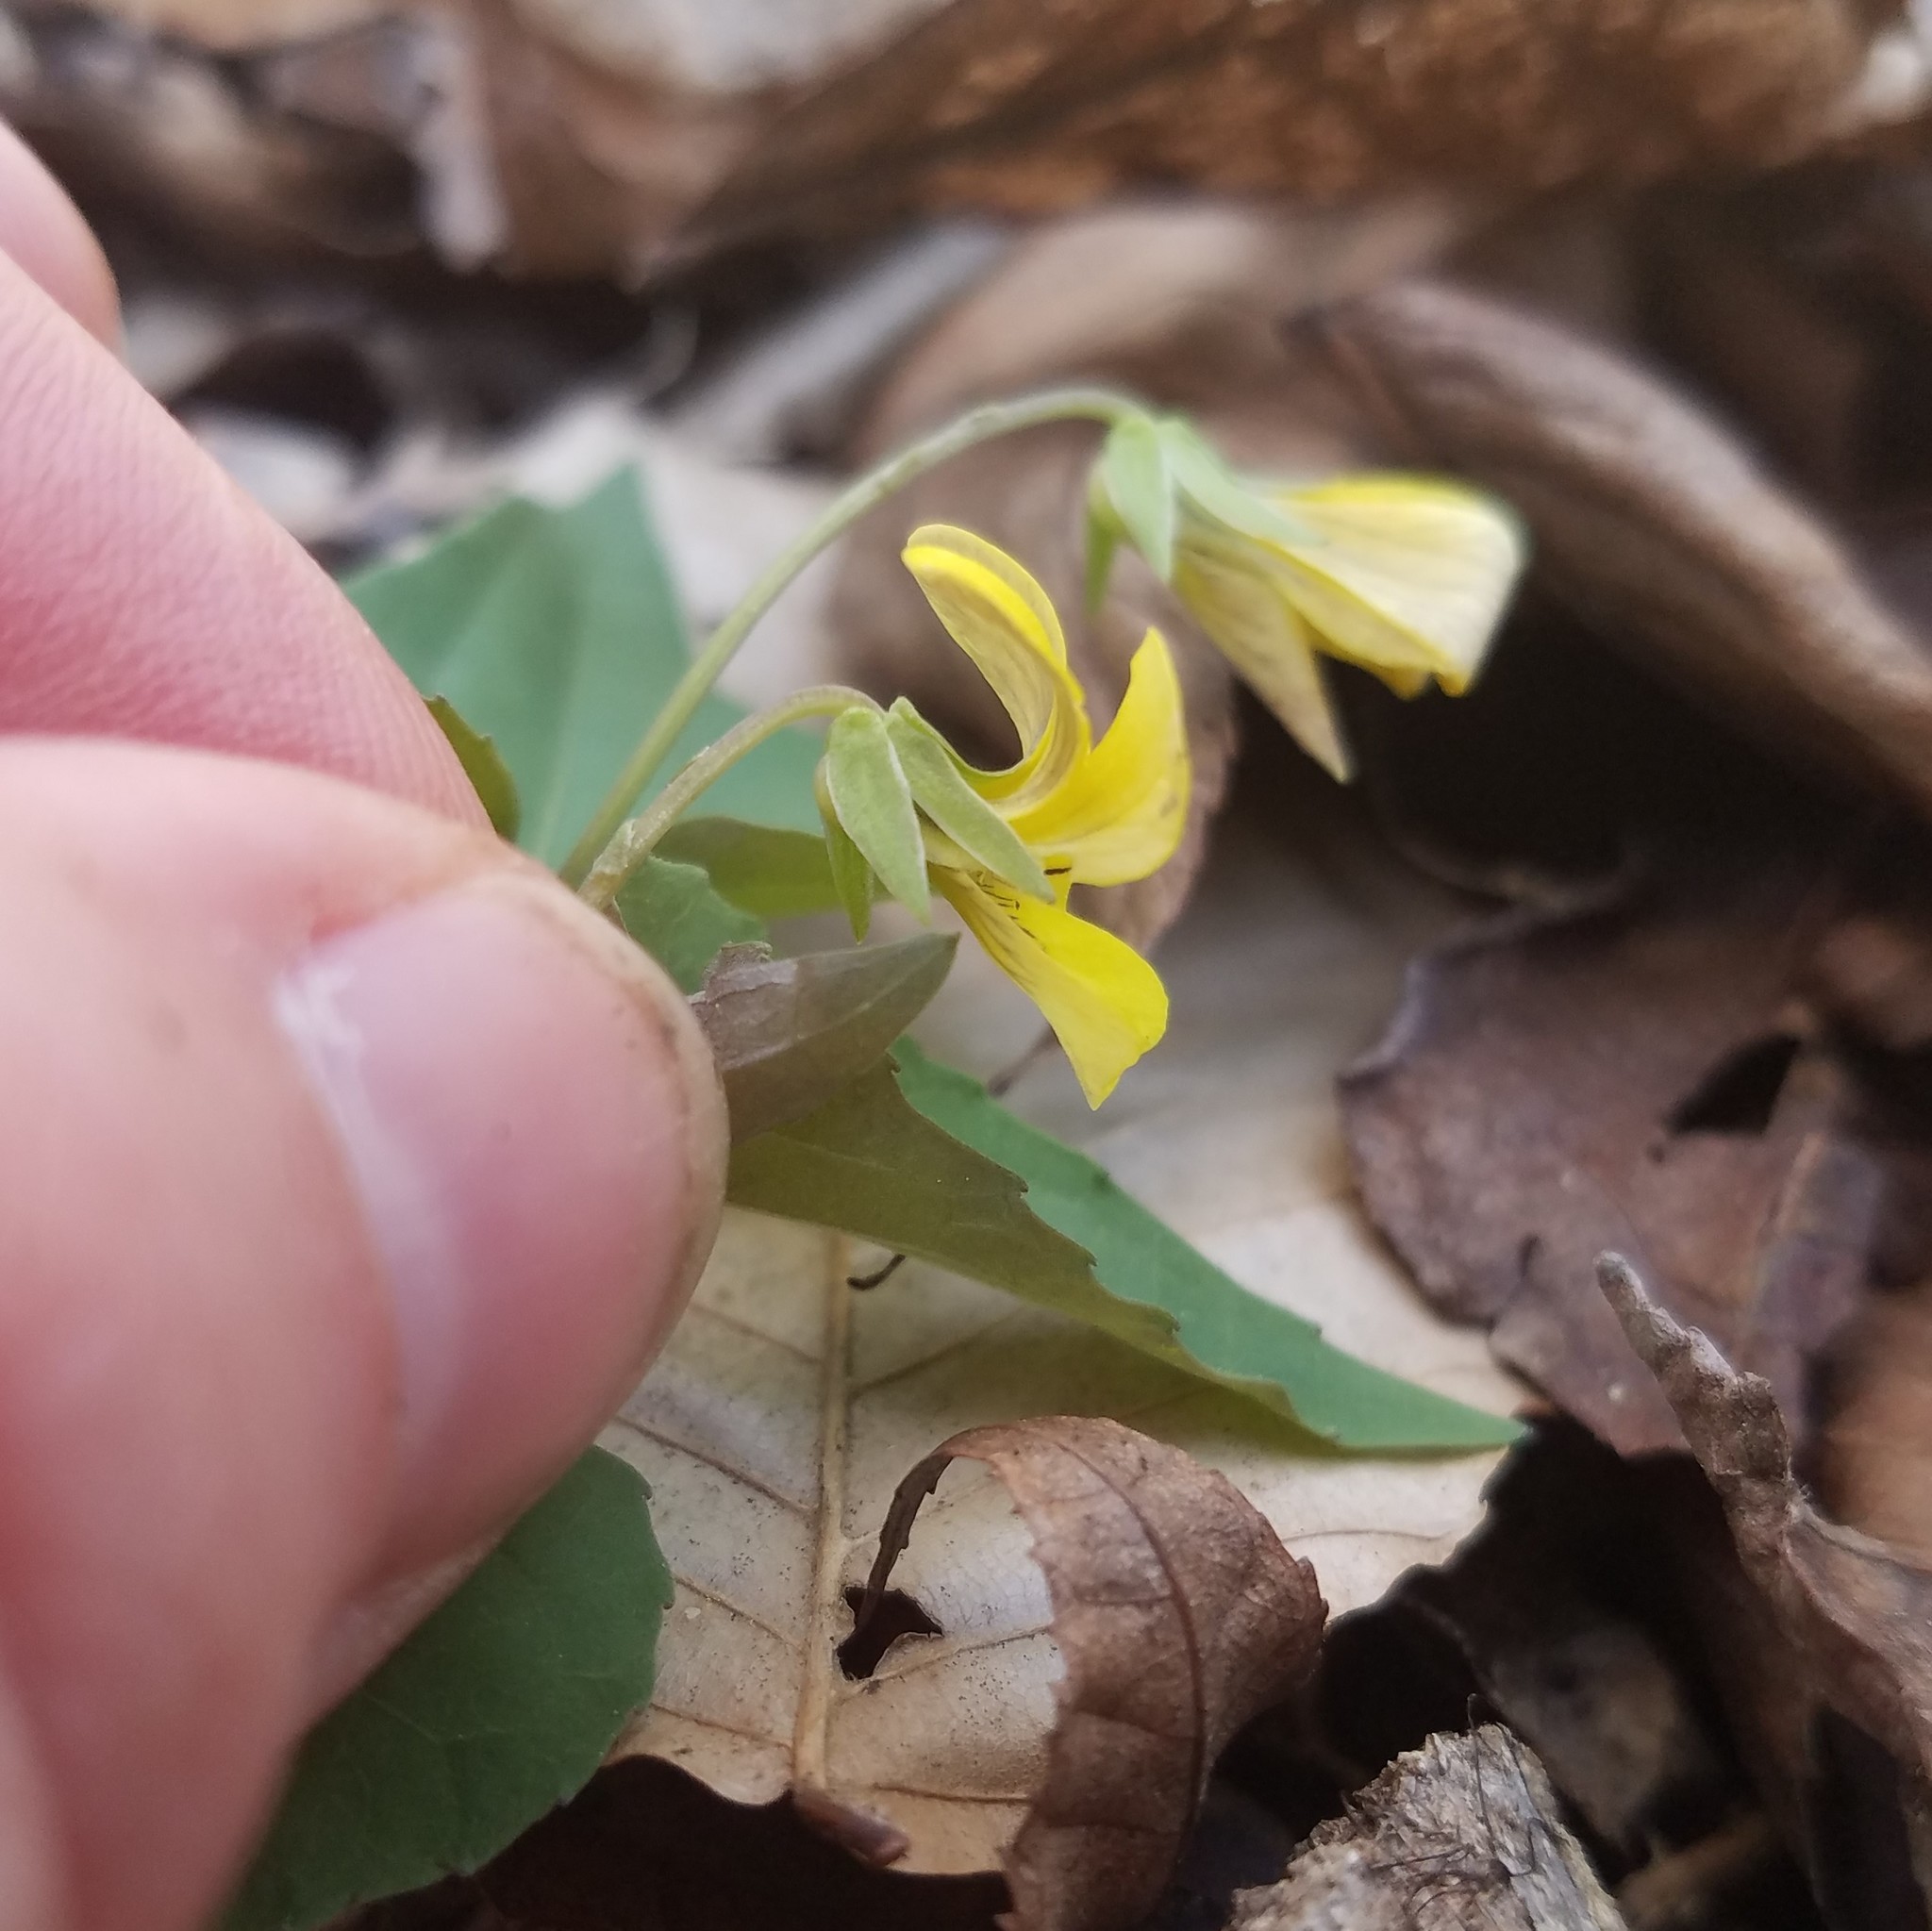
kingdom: Plantae
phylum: Tracheophyta
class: Magnoliopsida
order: Malpighiales
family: Violaceae
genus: Viola
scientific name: Viola hastata
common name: Spear-leaf violet
